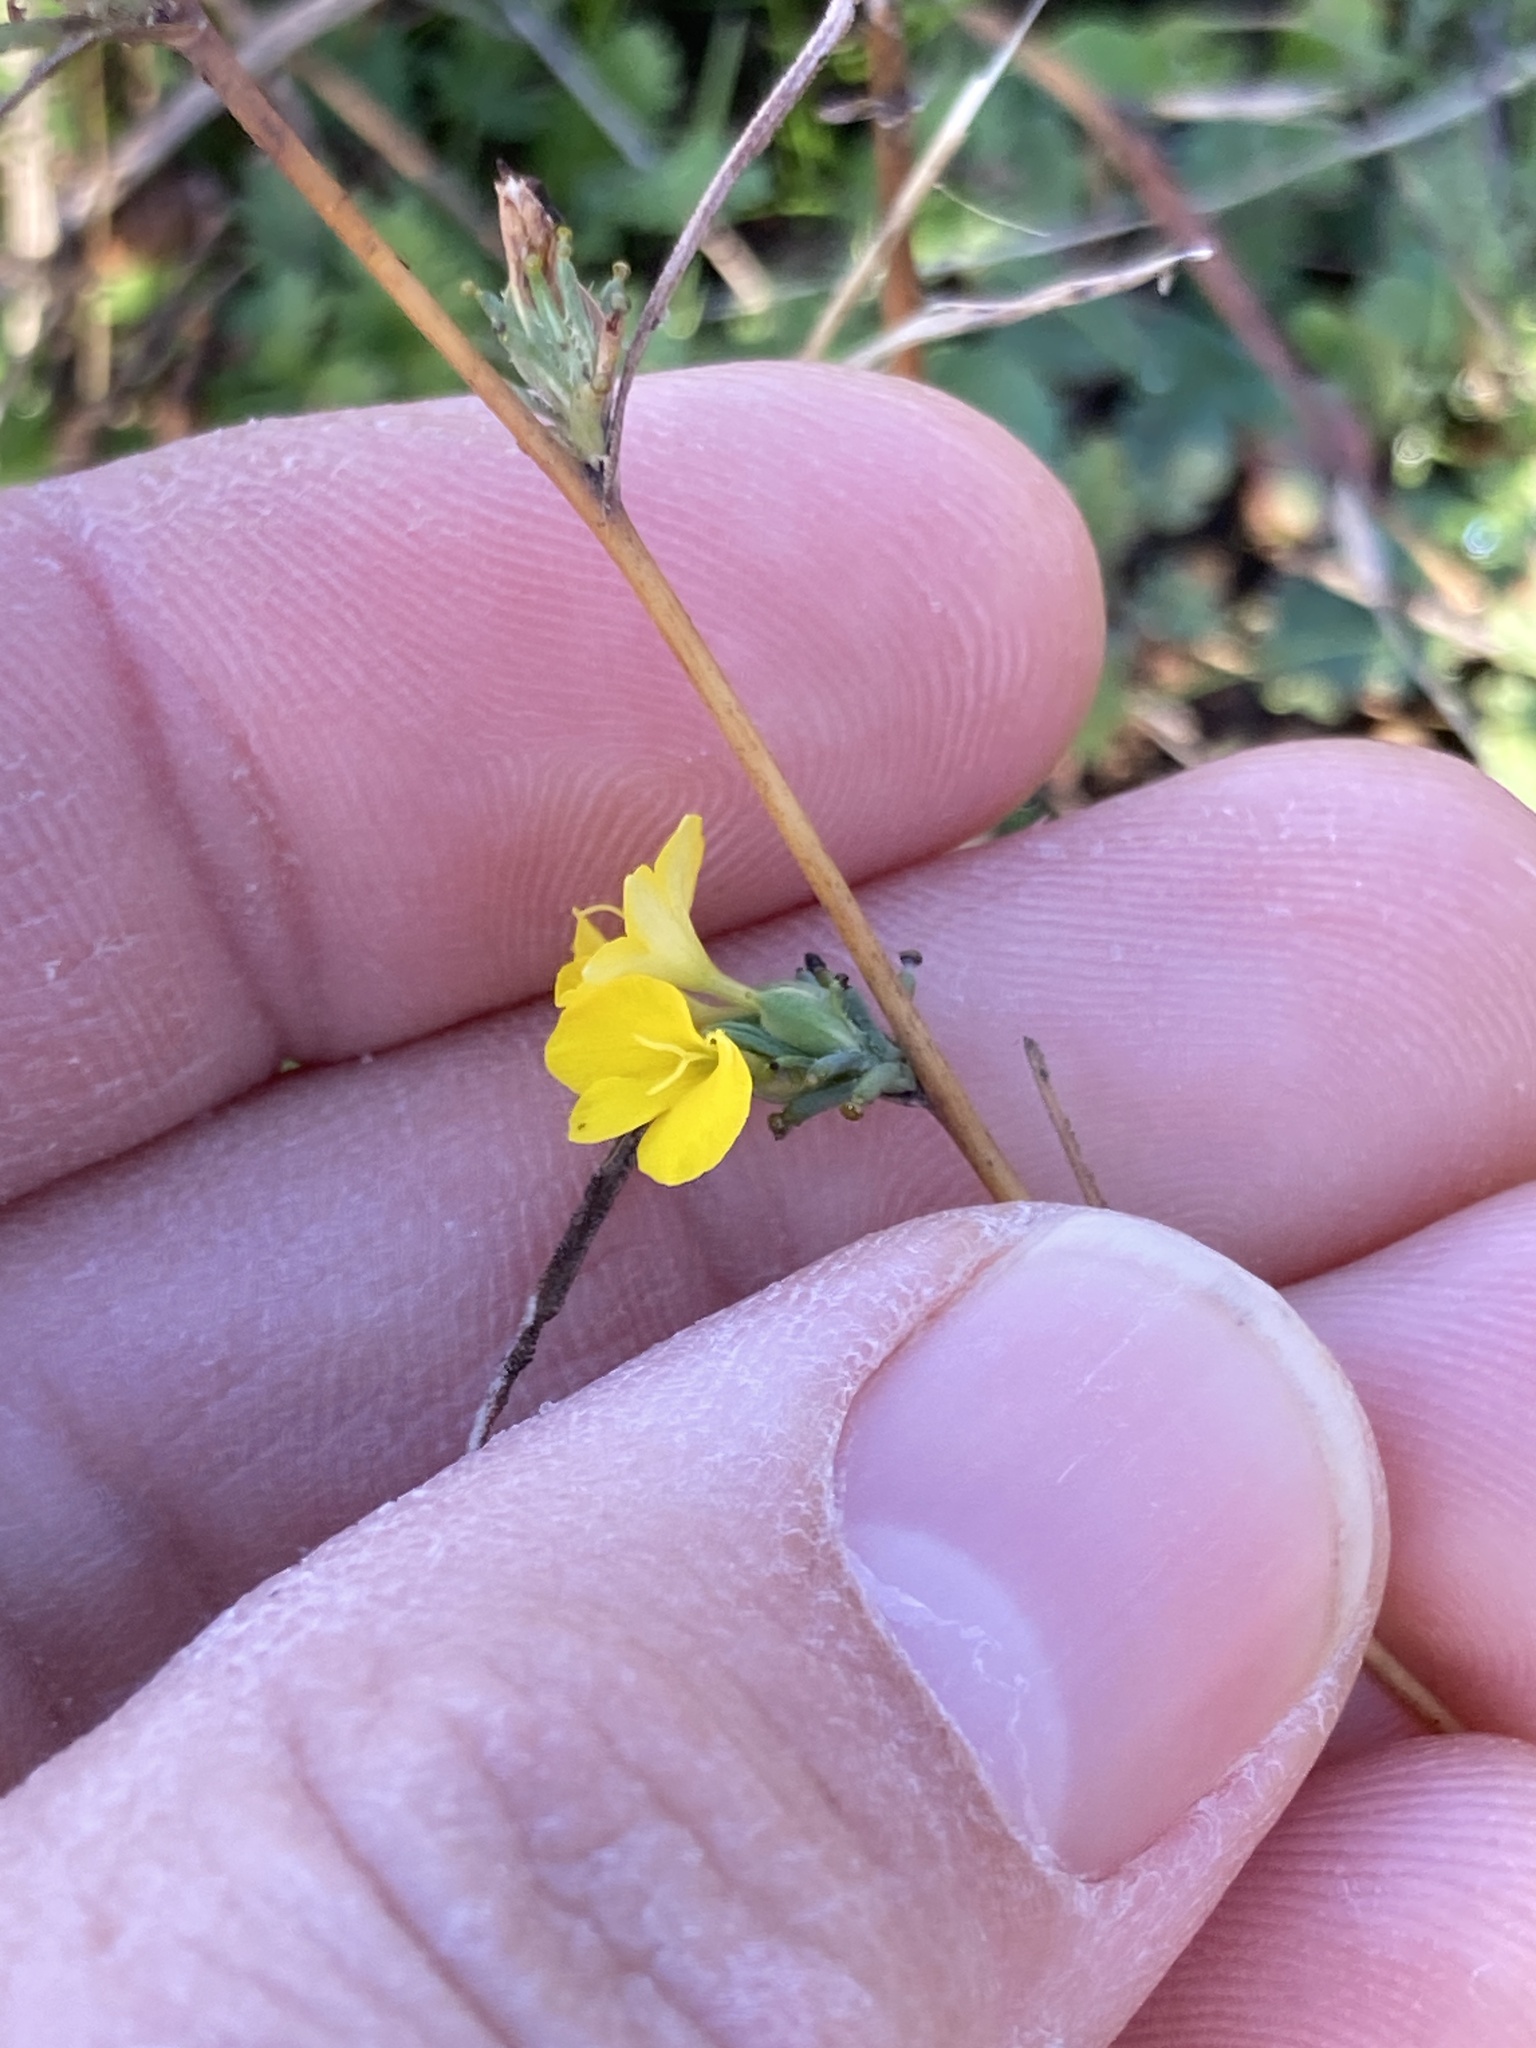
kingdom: Plantae
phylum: Tracheophyta
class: Magnoliopsida
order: Asterales
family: Asteraceae
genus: Calycadenia
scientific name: Calycadenia truncata
